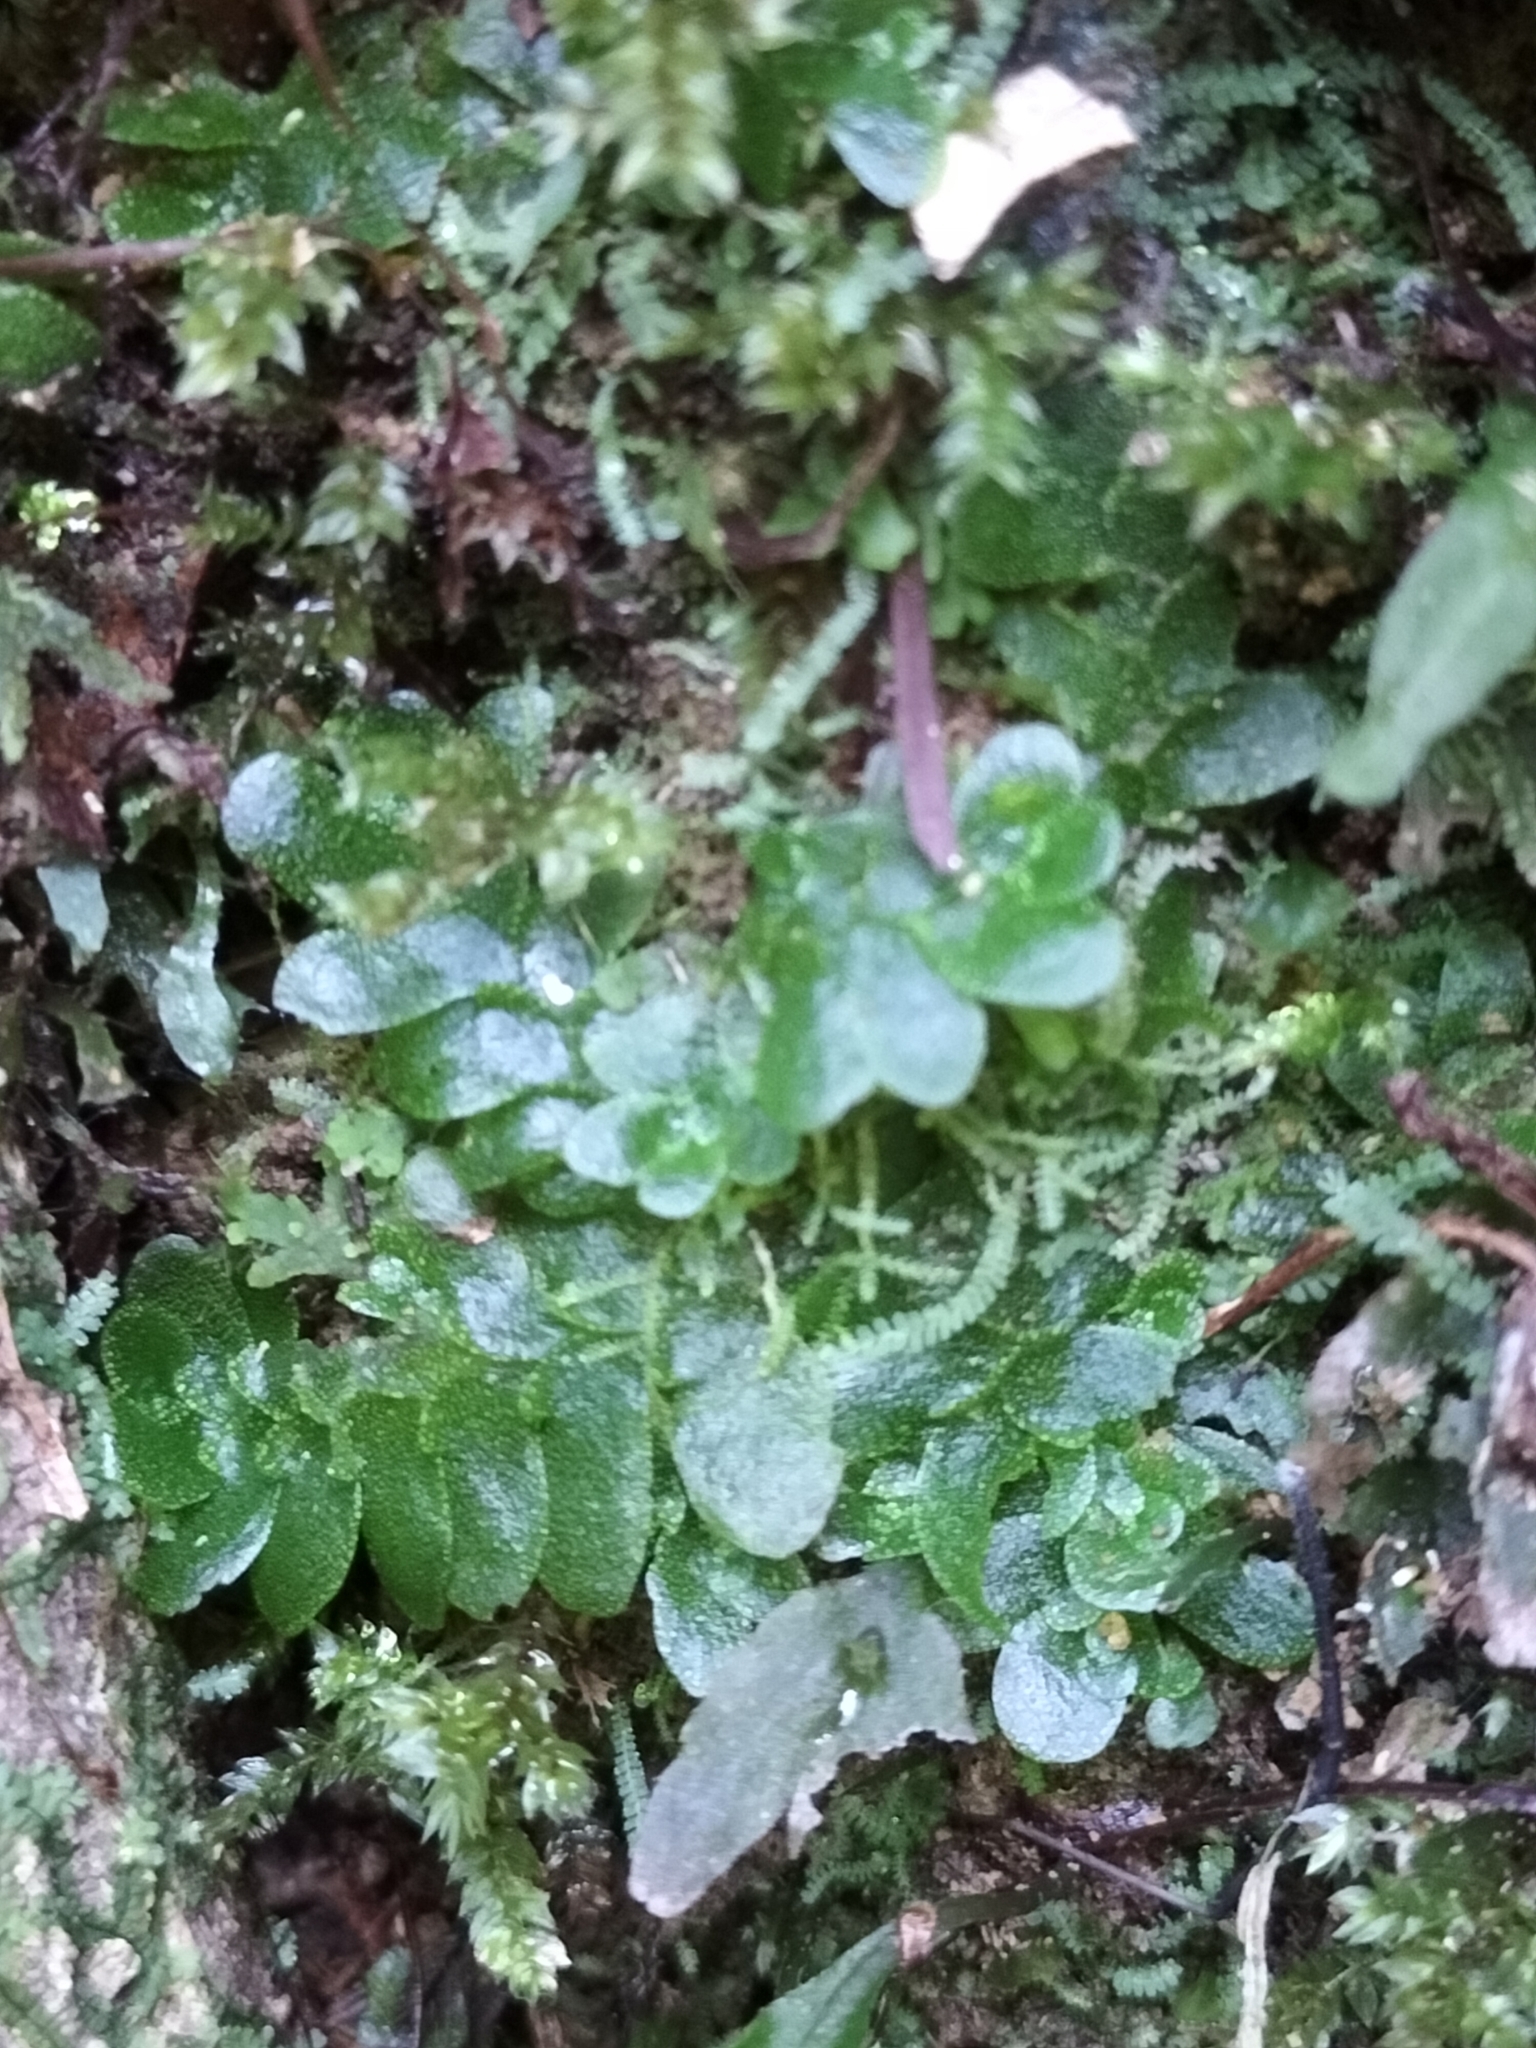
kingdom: Plantae
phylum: Marchantiophyta
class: Haplomitriopsida
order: Treubiales
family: Treubiaceae
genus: Treubia
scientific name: Treubia lacunosa
